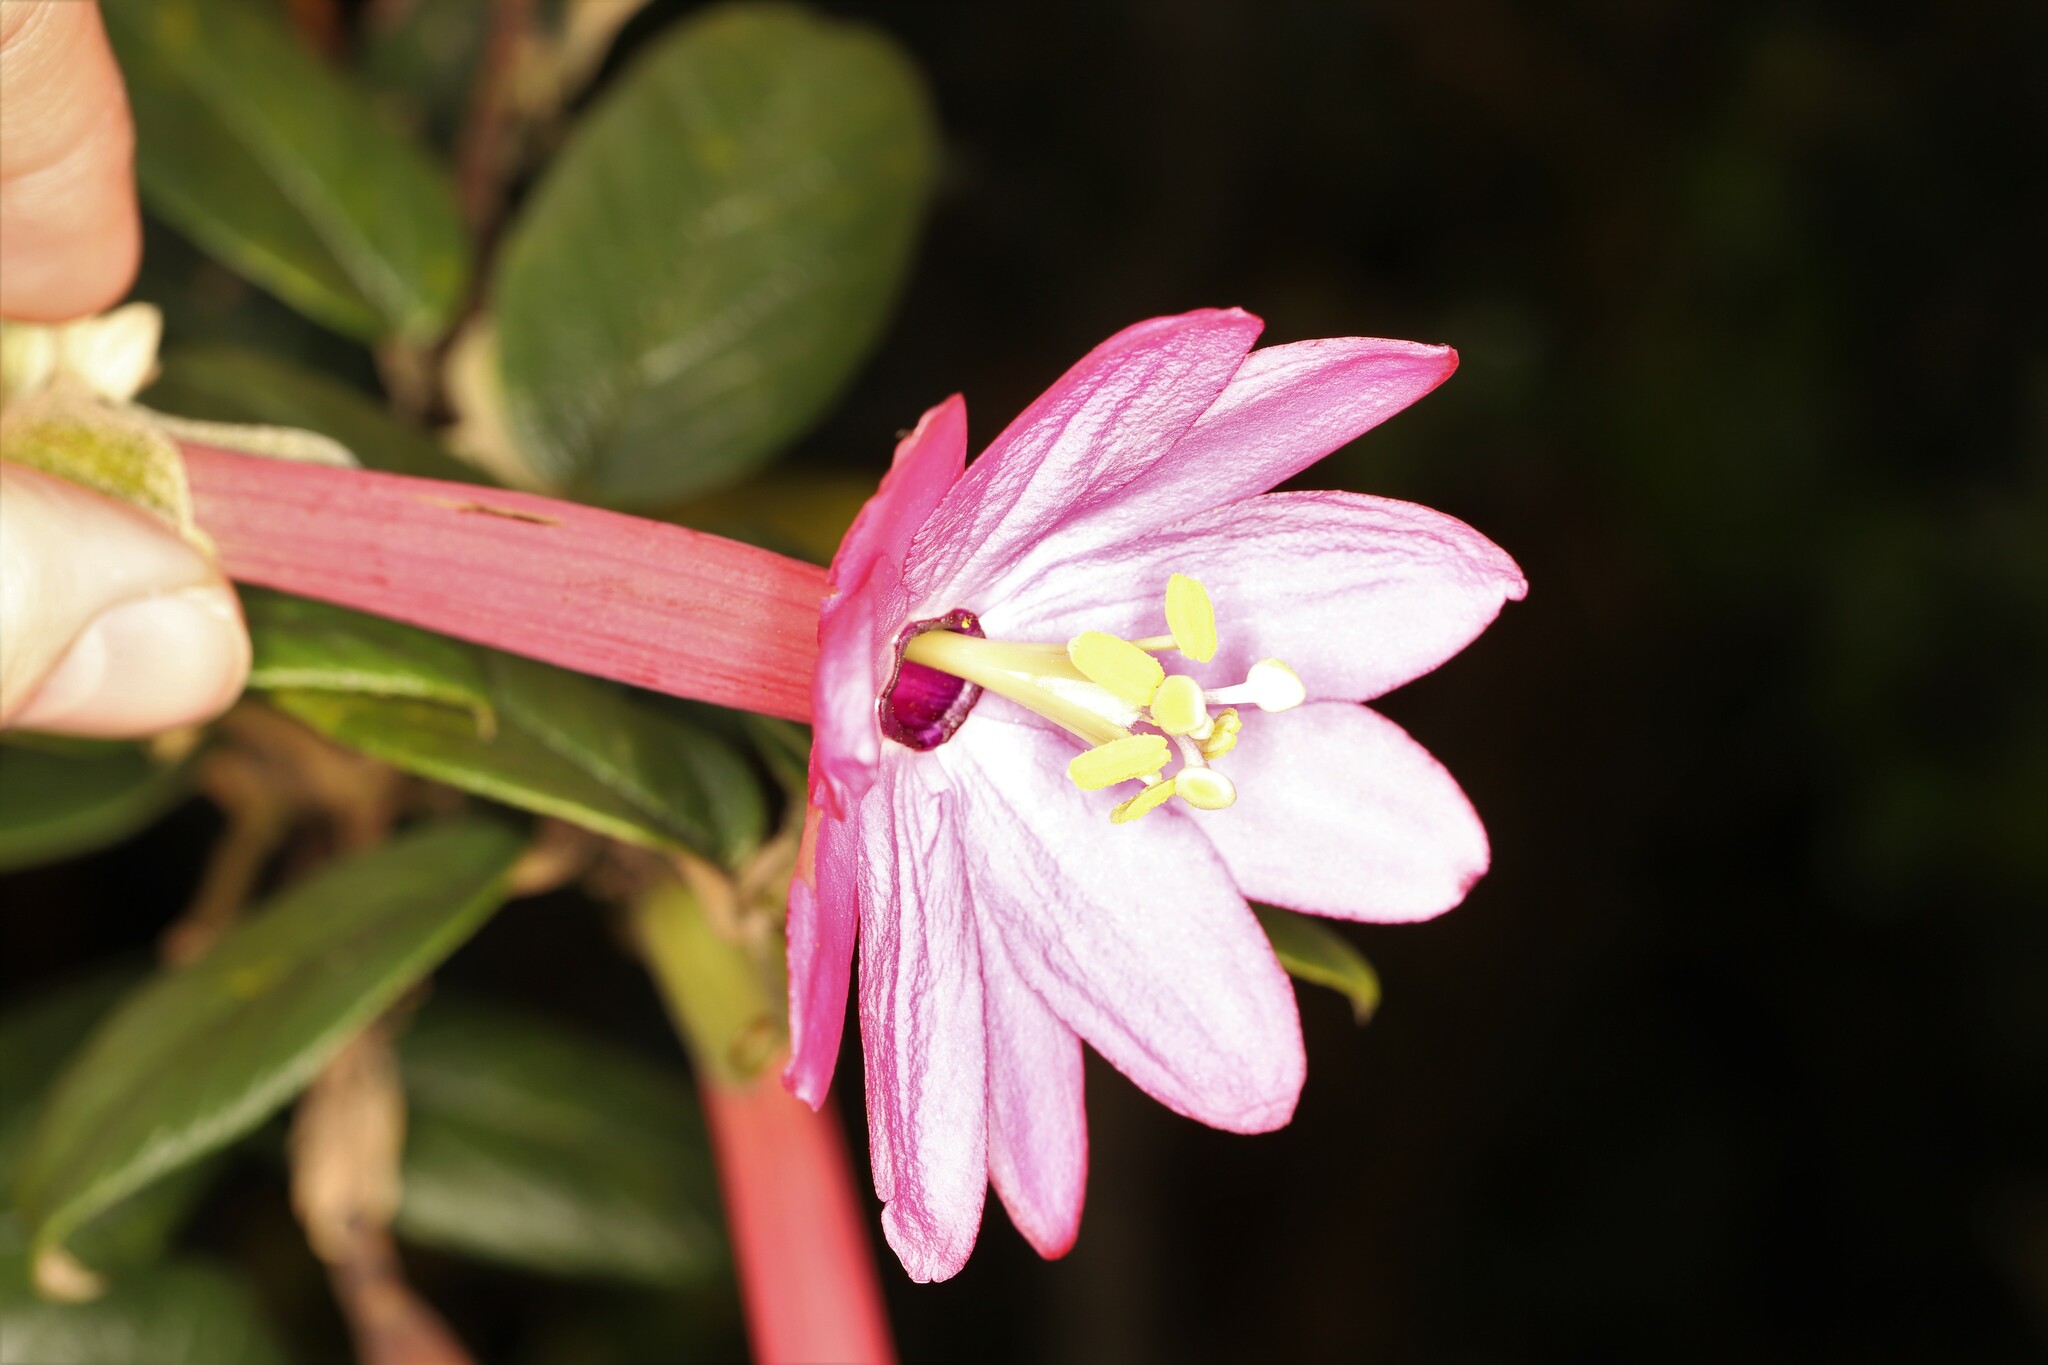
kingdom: Plantae
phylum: Tracheophyta
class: Magnoliopsida
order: Malpighiales
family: Passifloraceae
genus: Passiflora
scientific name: Passiflora adulterina
